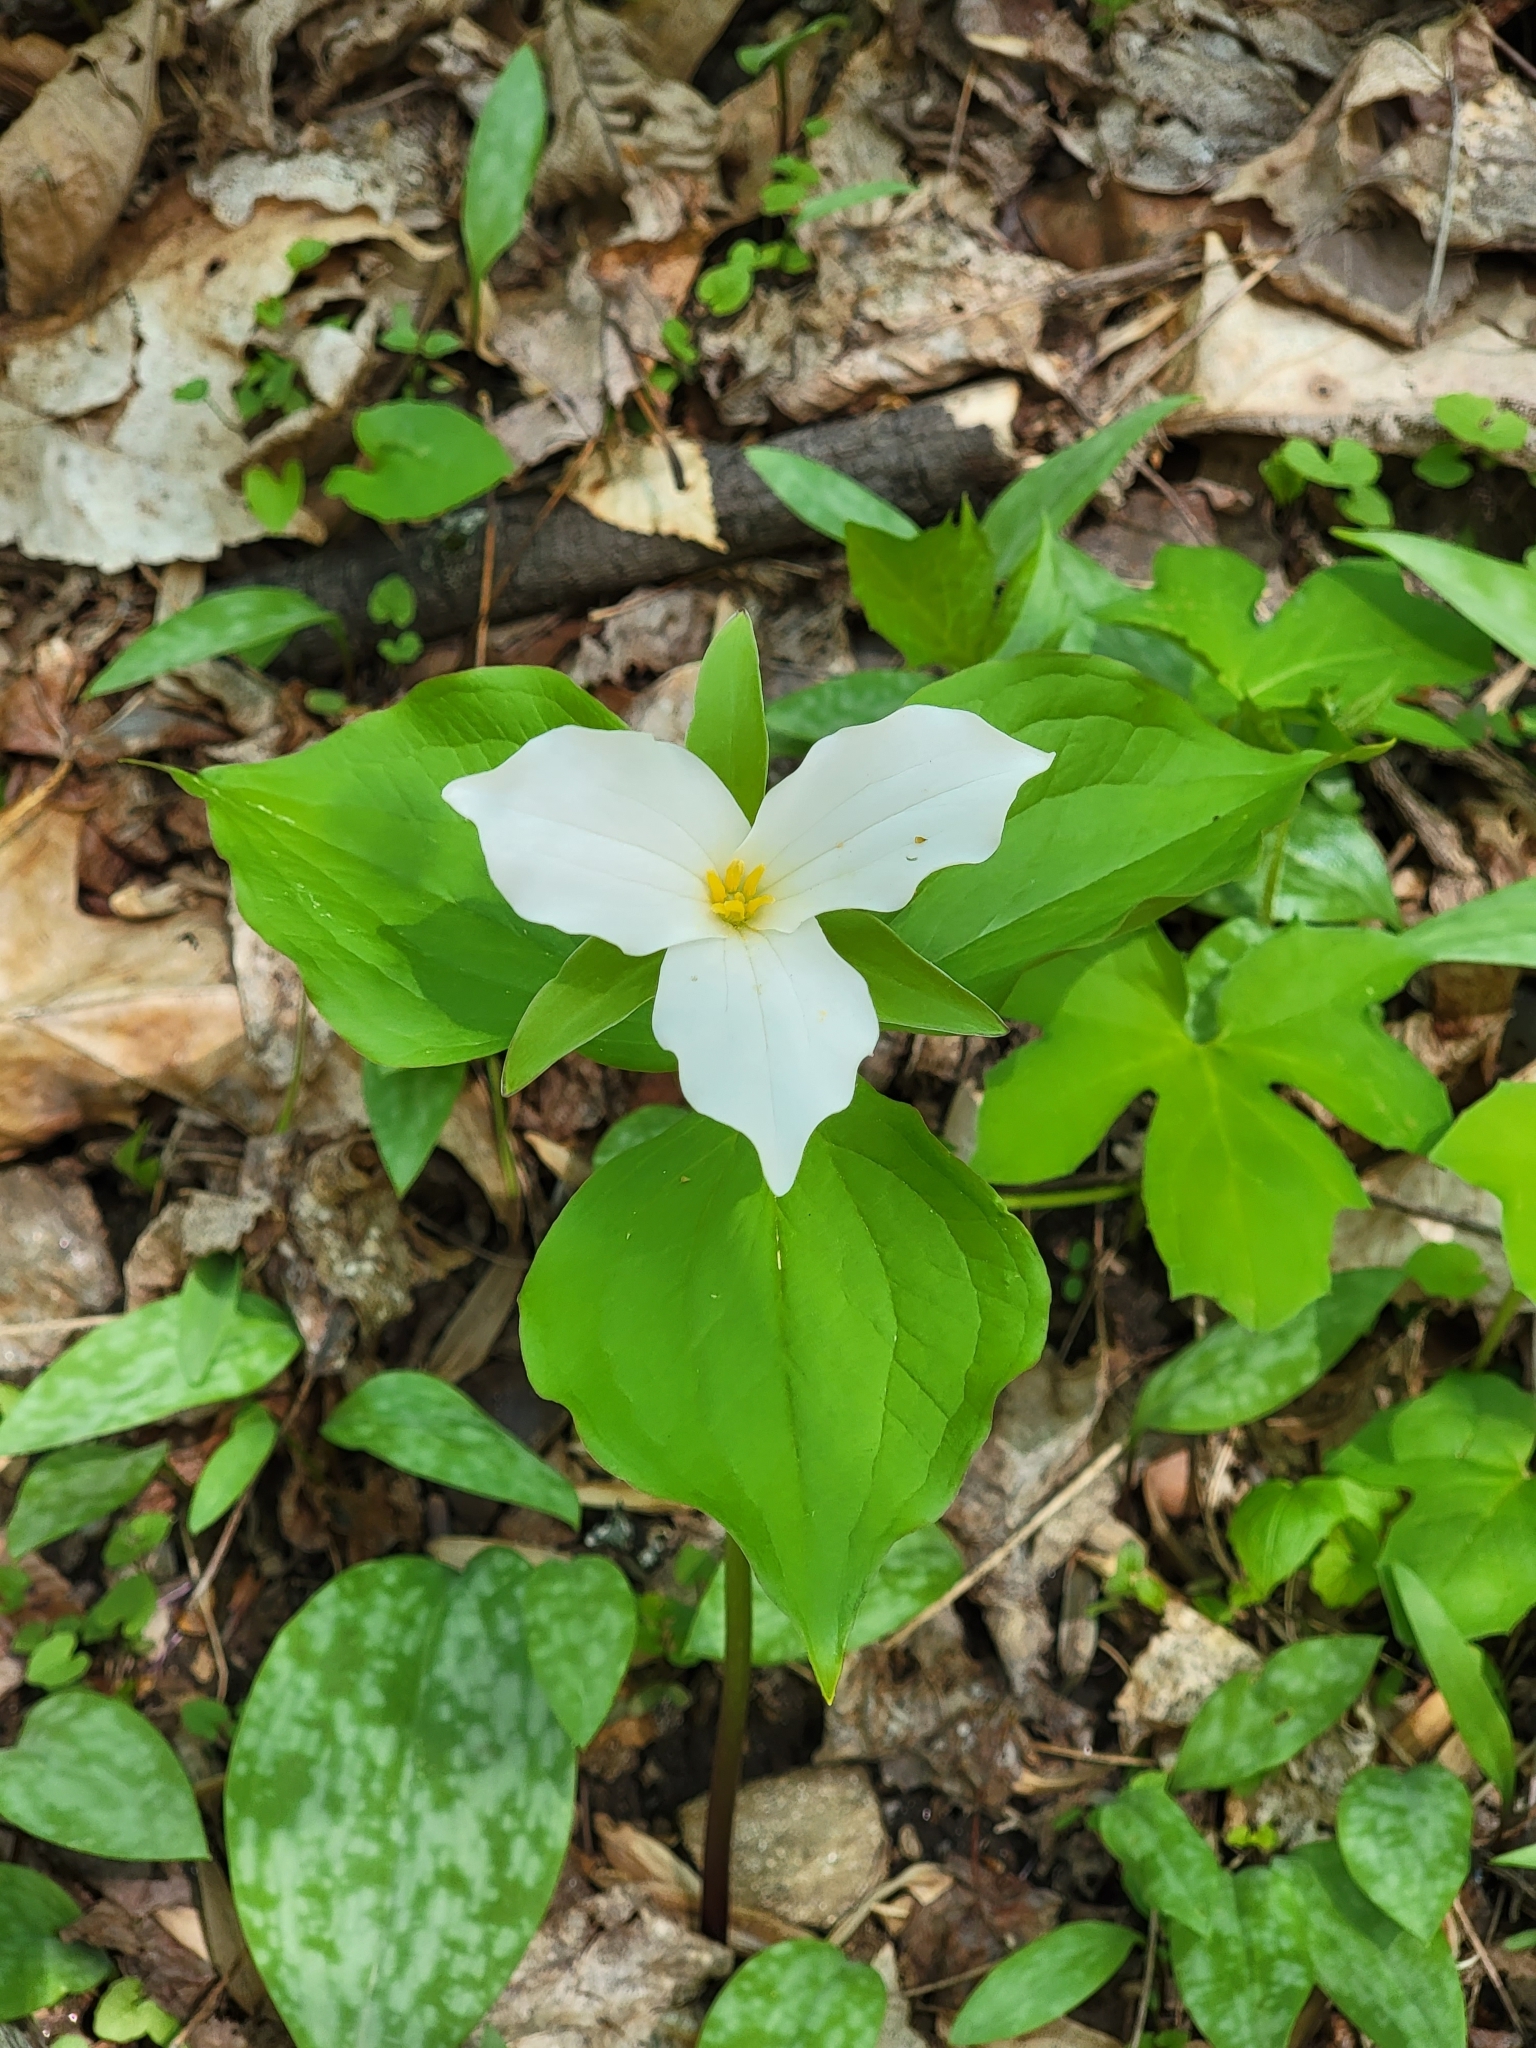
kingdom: Plantae
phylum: Tracheophyta
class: Liliopsida
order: Liliales
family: Melanthiaceae
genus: Trillium
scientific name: Trillium grandiflorum
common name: Great white trillium
